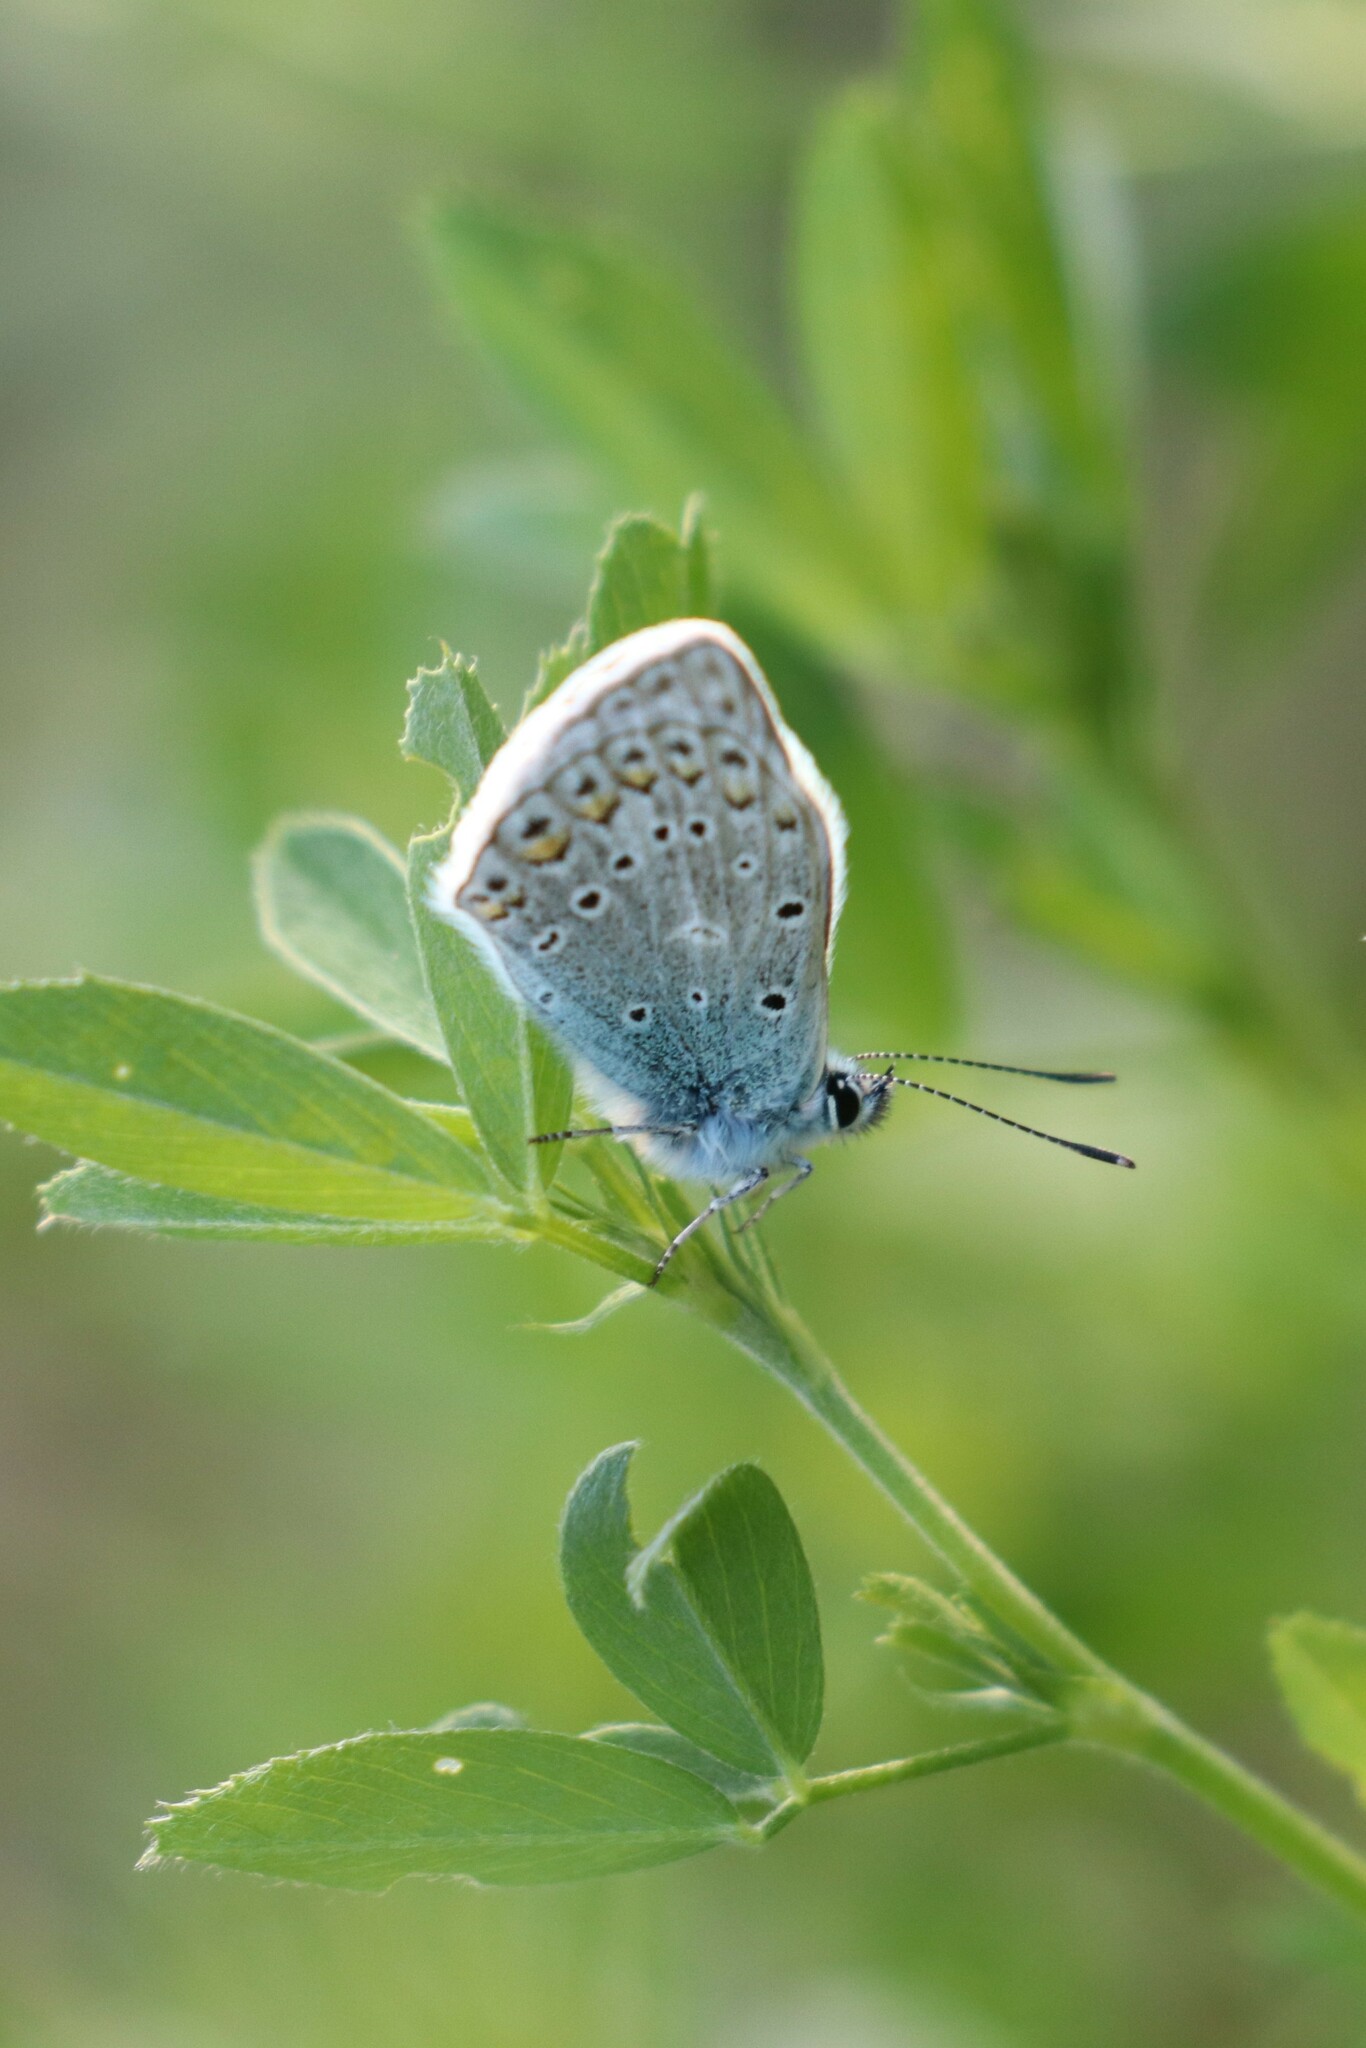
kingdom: Animalia
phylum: Arthropoda
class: Insecta
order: Lepidoptera
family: Lycaenidae
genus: Polyommatus
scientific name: Polyommatus icarus
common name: Common blue
